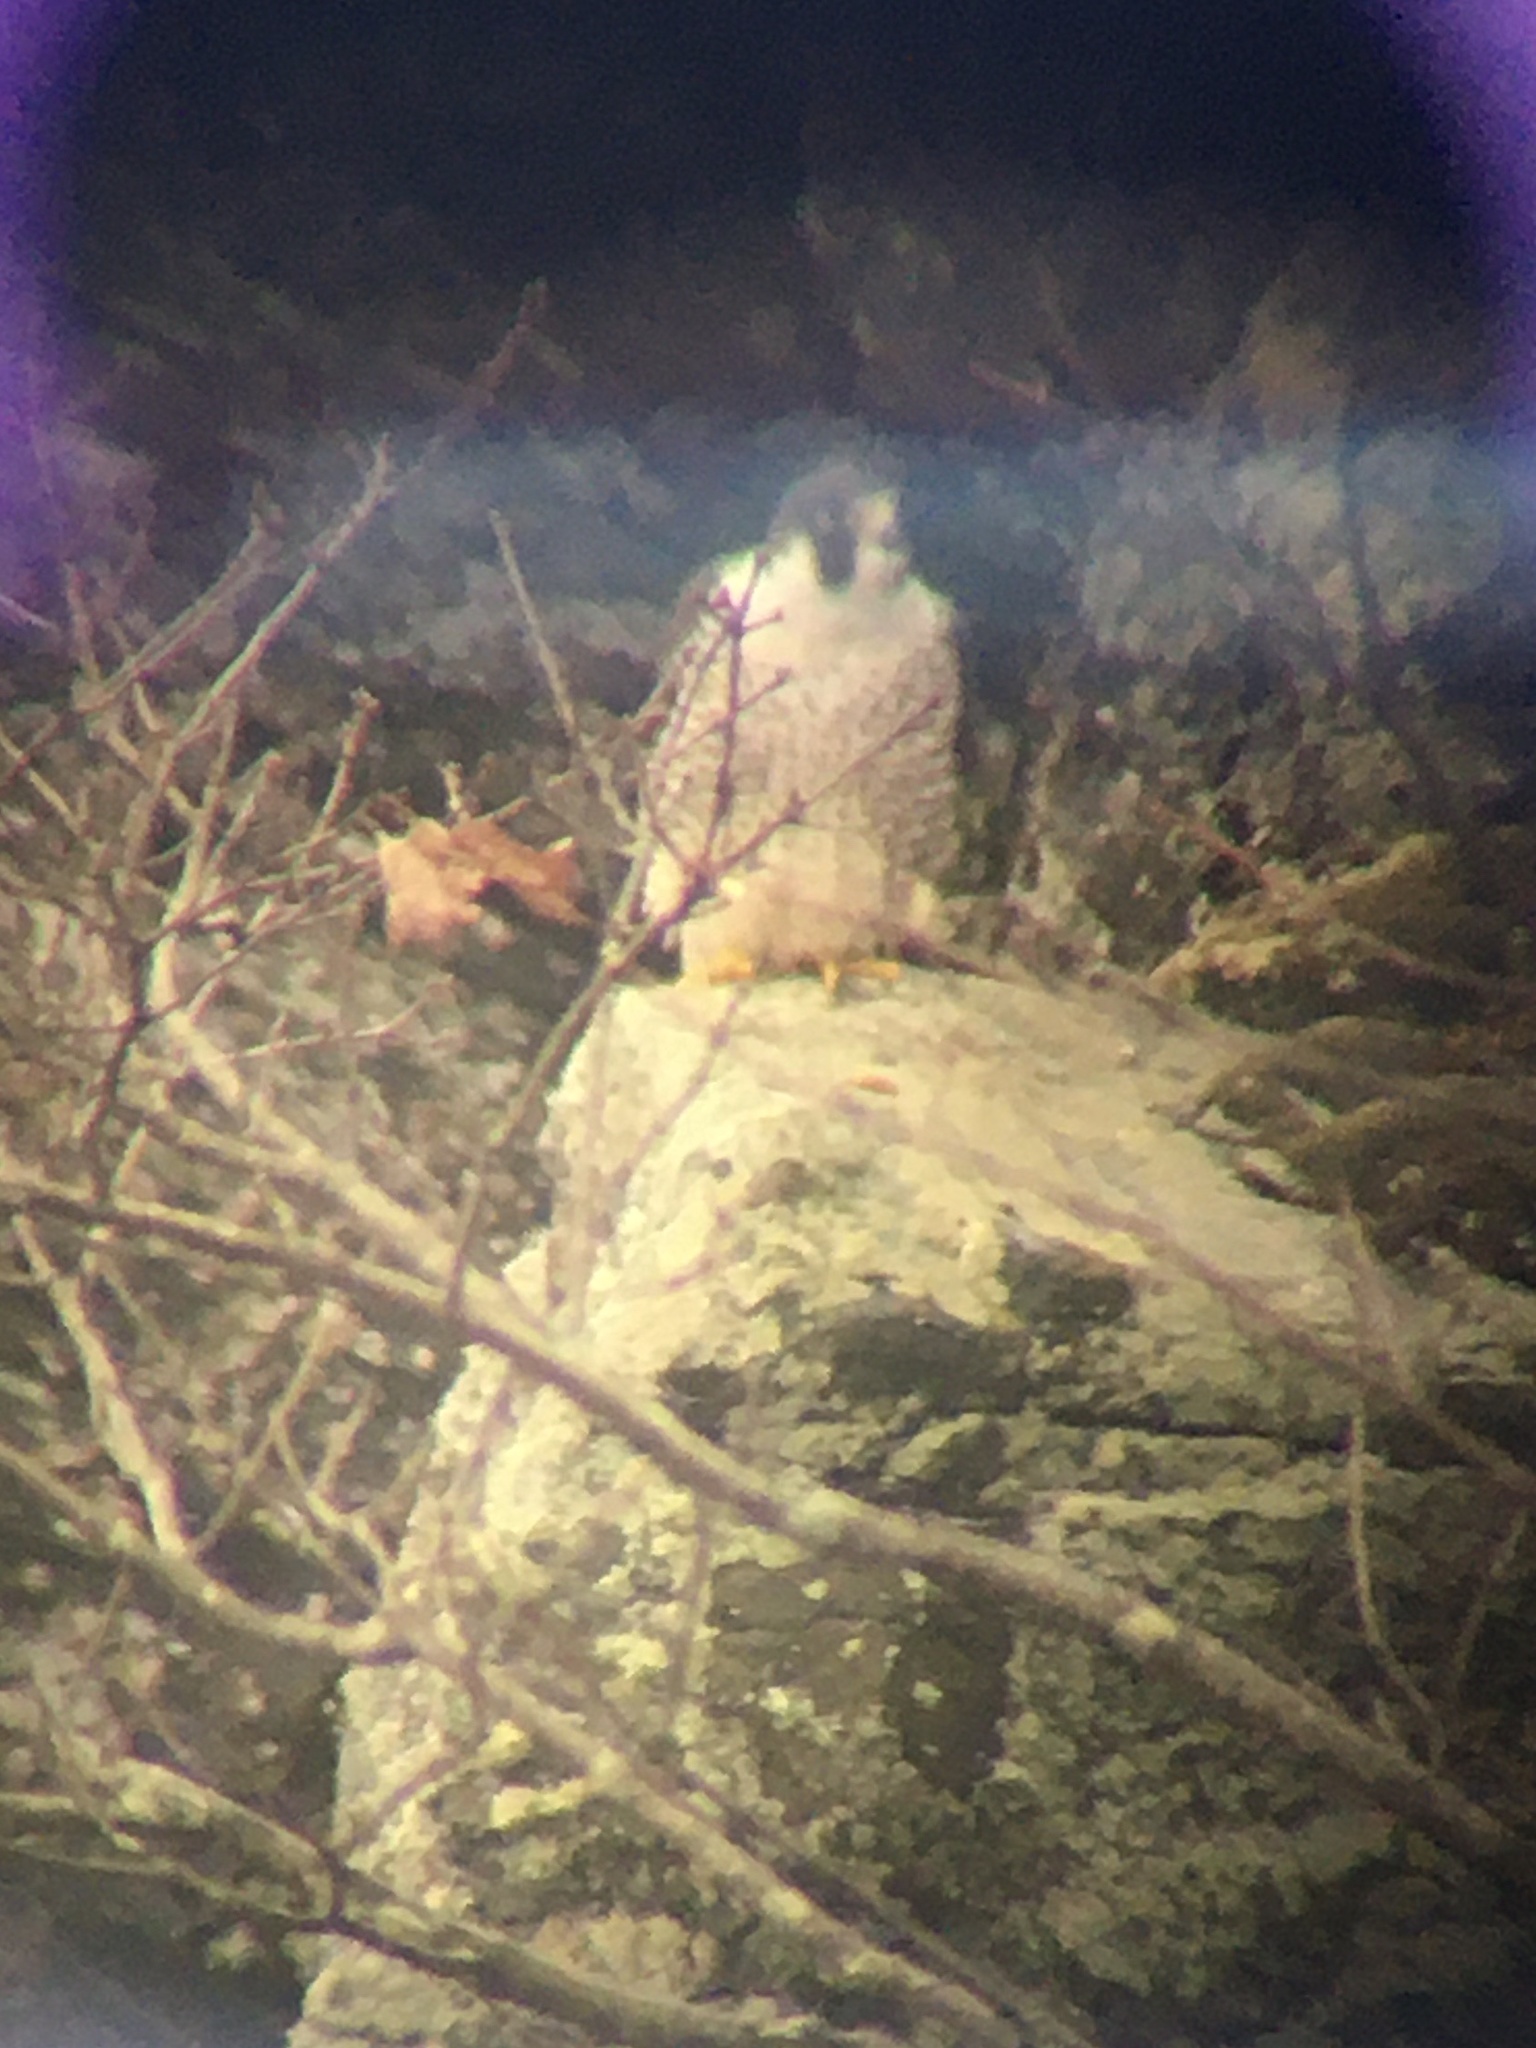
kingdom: Animalia
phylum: Chordata
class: Aves
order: Falconiformes
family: Falconidae
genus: Falco
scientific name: Falco peregrinus
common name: Peregrine falcon
